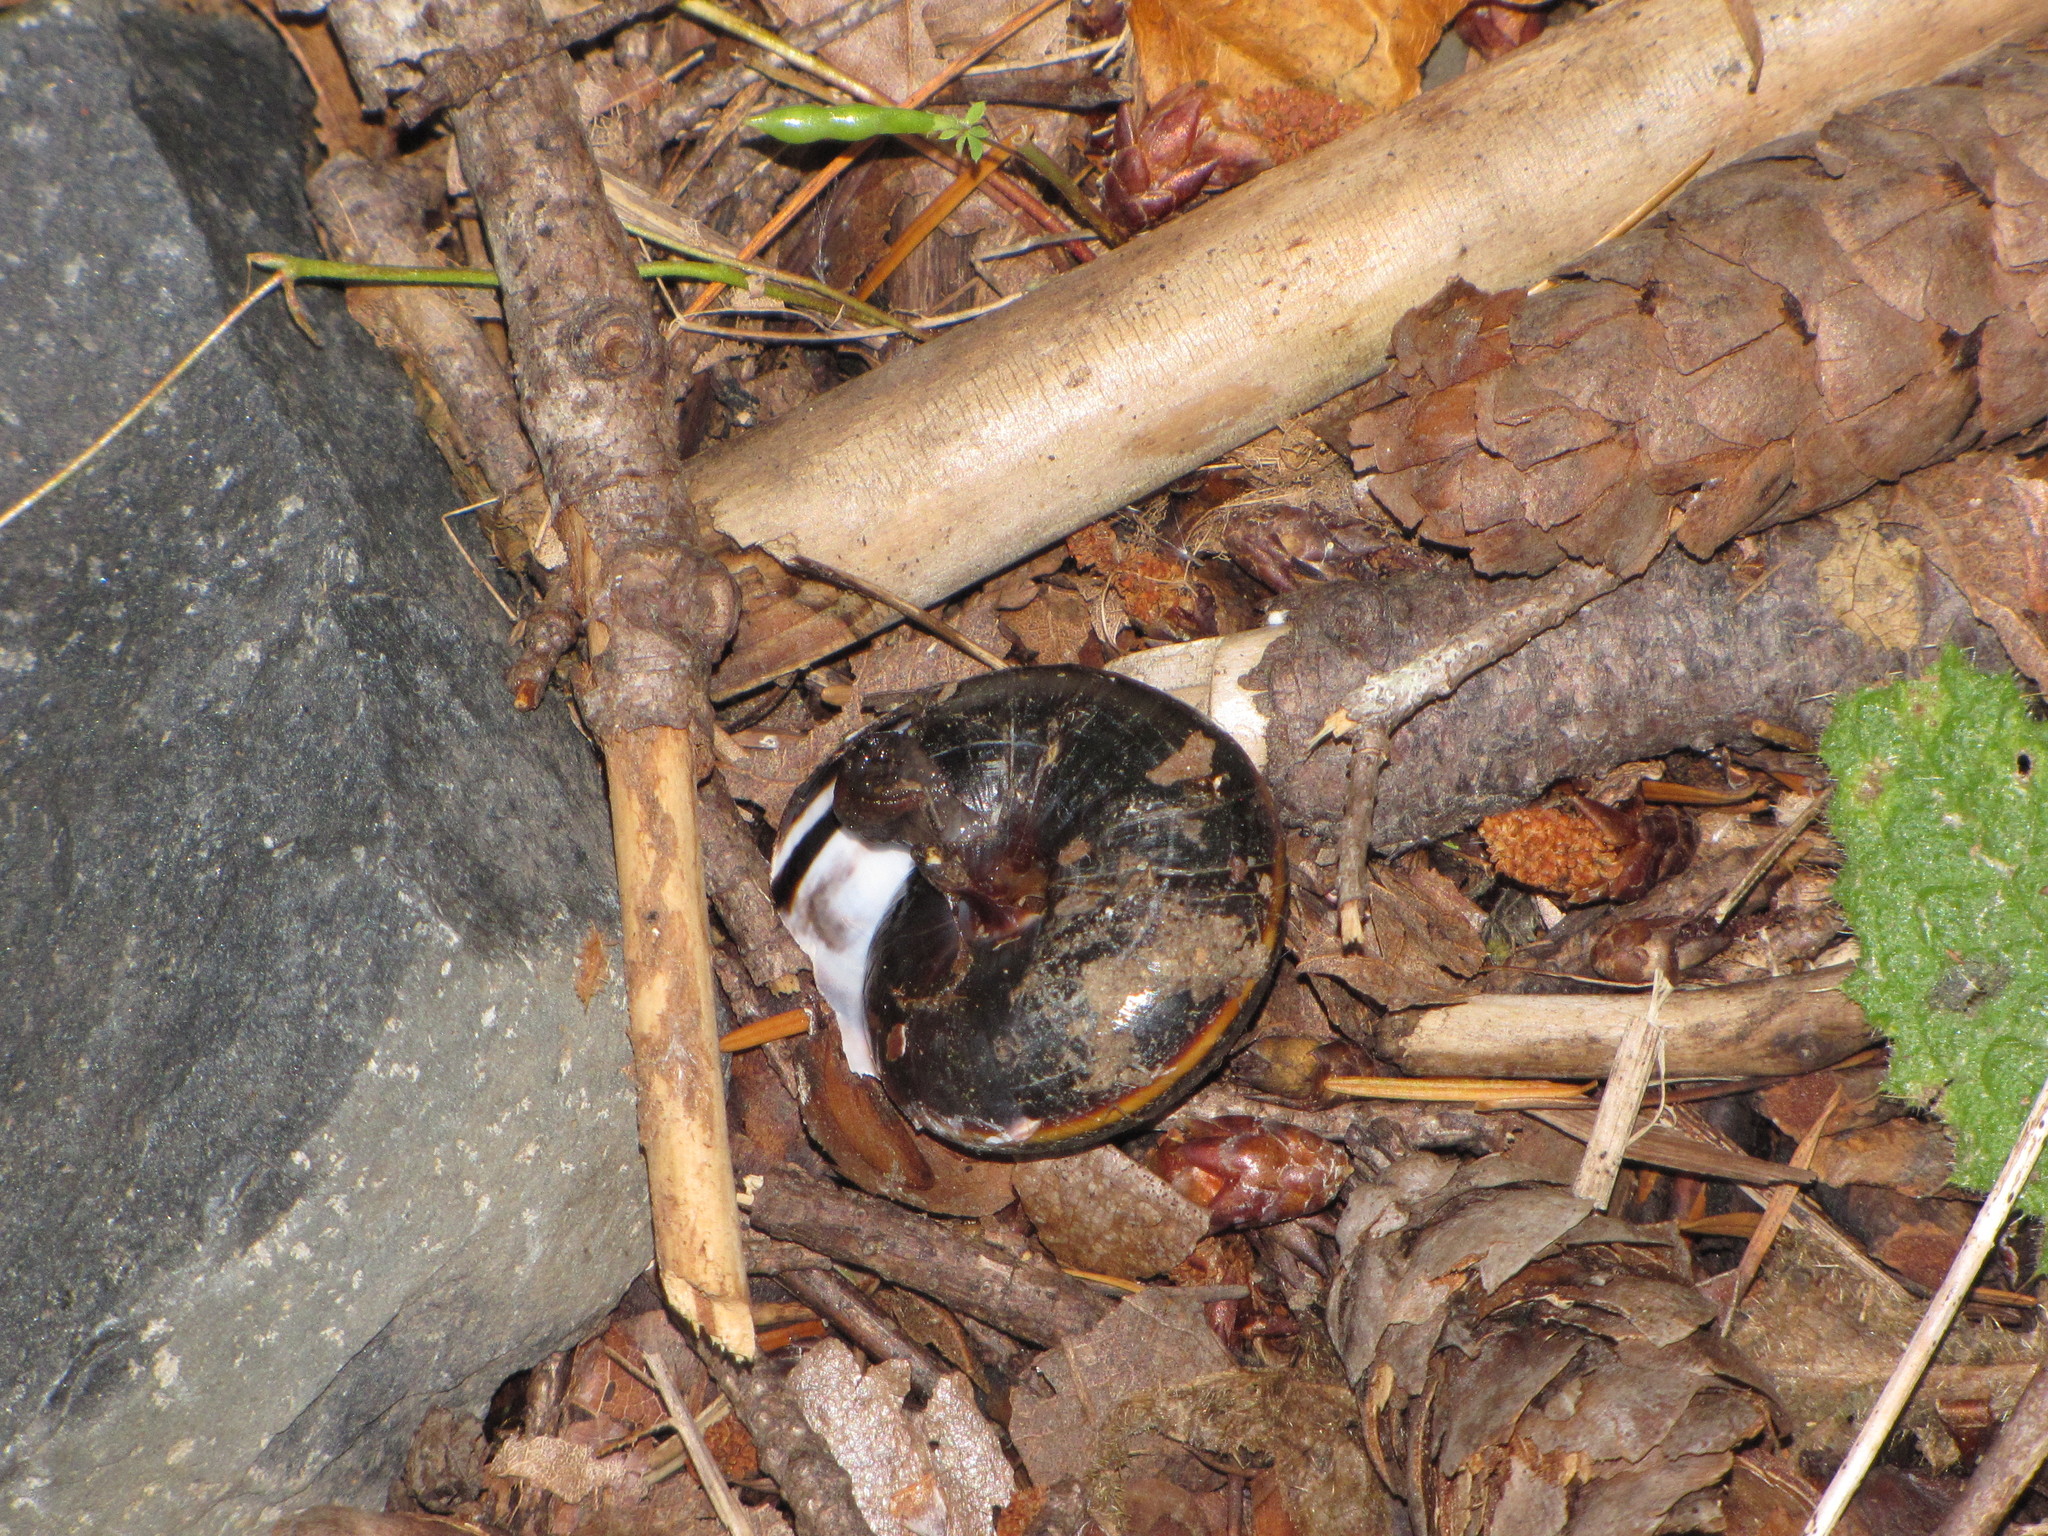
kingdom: Animalia
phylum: Mollusca
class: Gastropoda
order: Stylommatophora
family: Xanthonychidae
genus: Monadenia
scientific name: Monadenia fidelis
